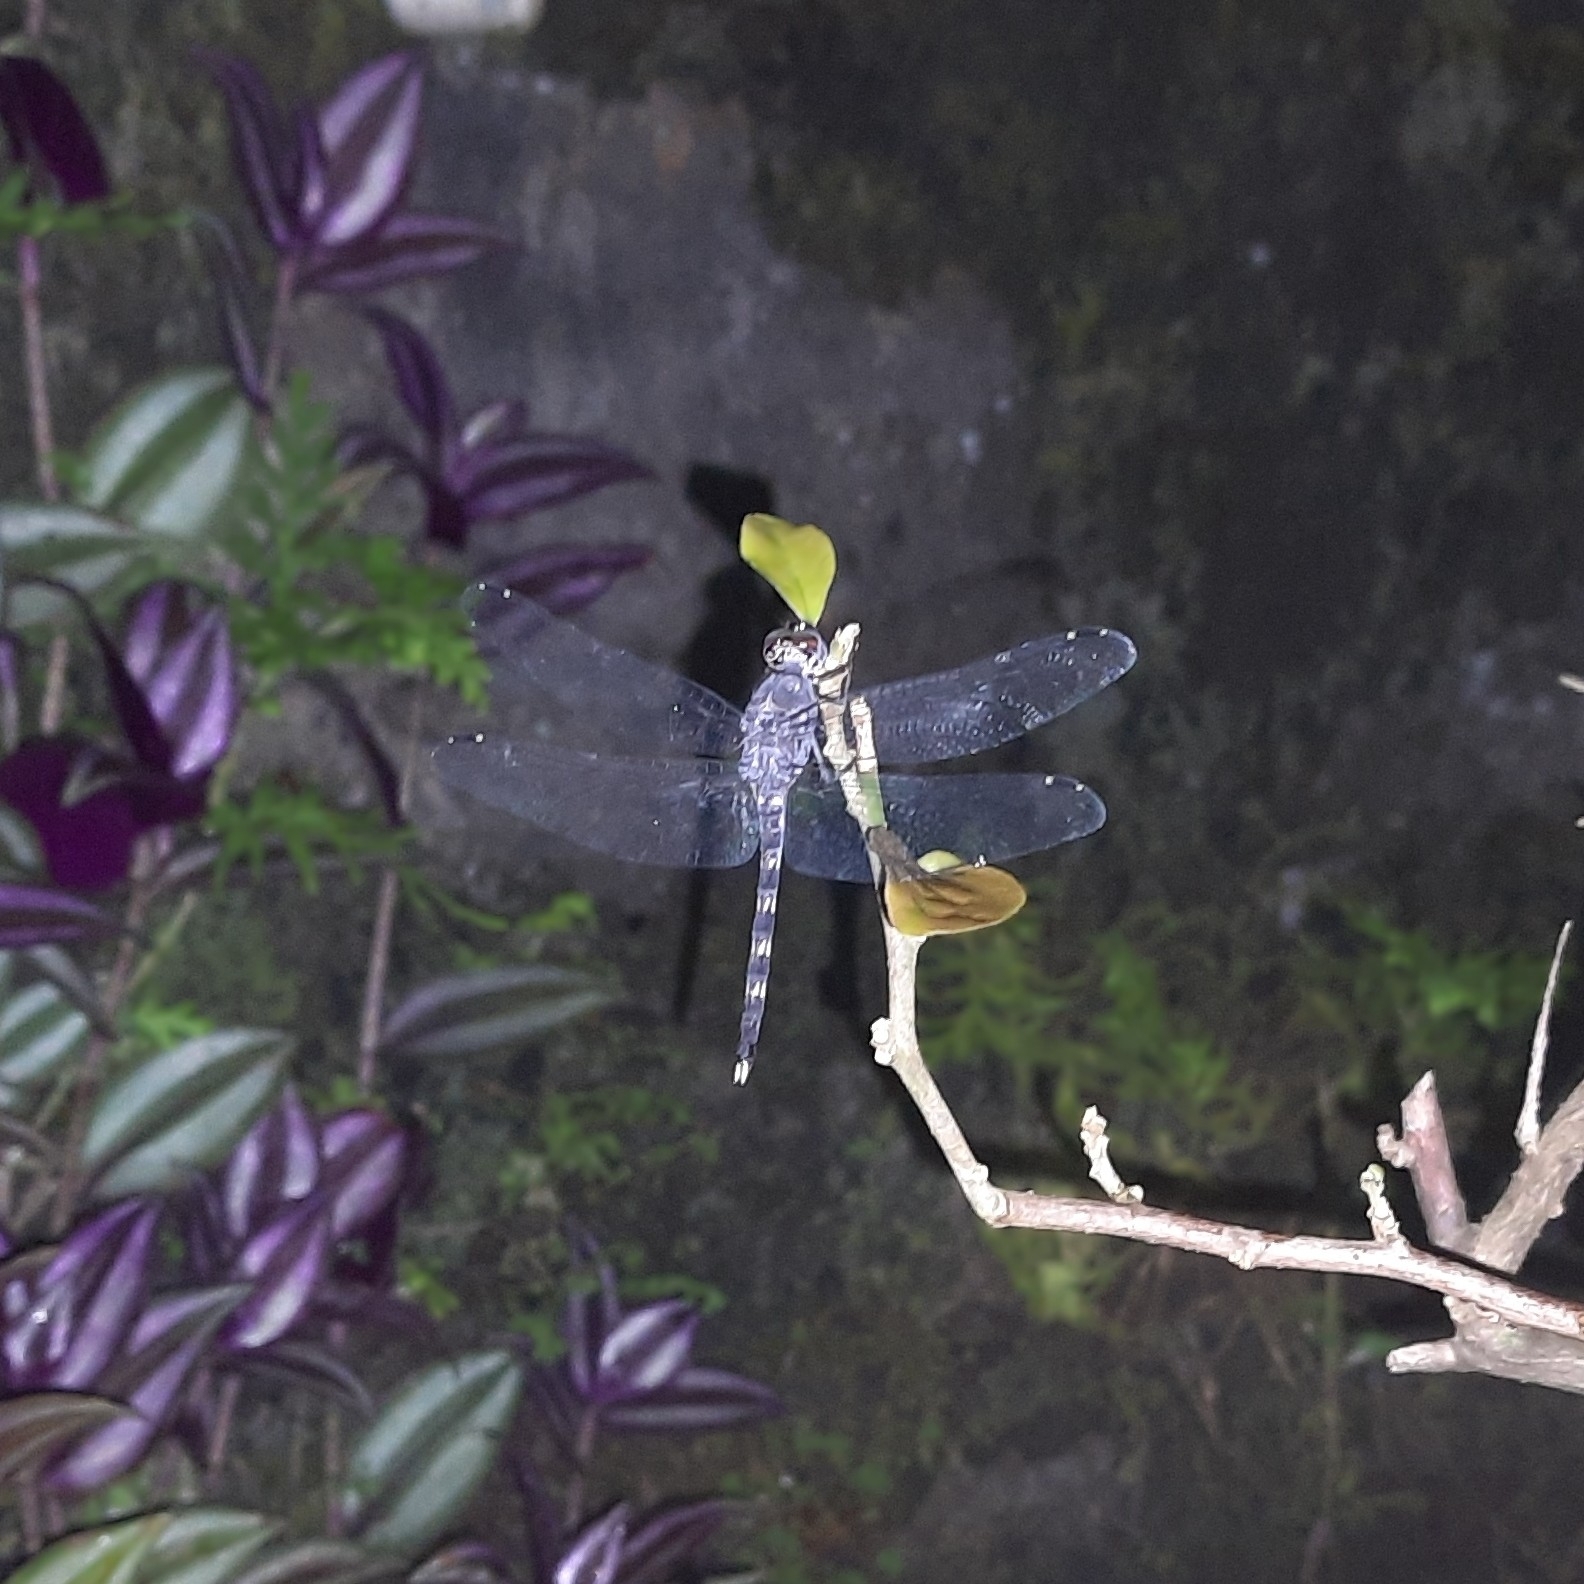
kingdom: Animalia
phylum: Arthropoda
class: Insecta
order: Odonata
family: Libellulidae
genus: Bradinopyga
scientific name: Bradinopyga geminata
